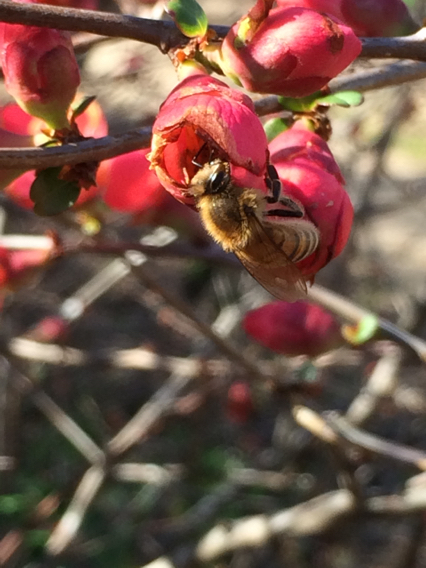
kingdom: Animalia
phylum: Arthropoda
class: Insecta
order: Hymenoptera
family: Apidae
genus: Apis
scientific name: Apis mellifera
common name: Honey bee
